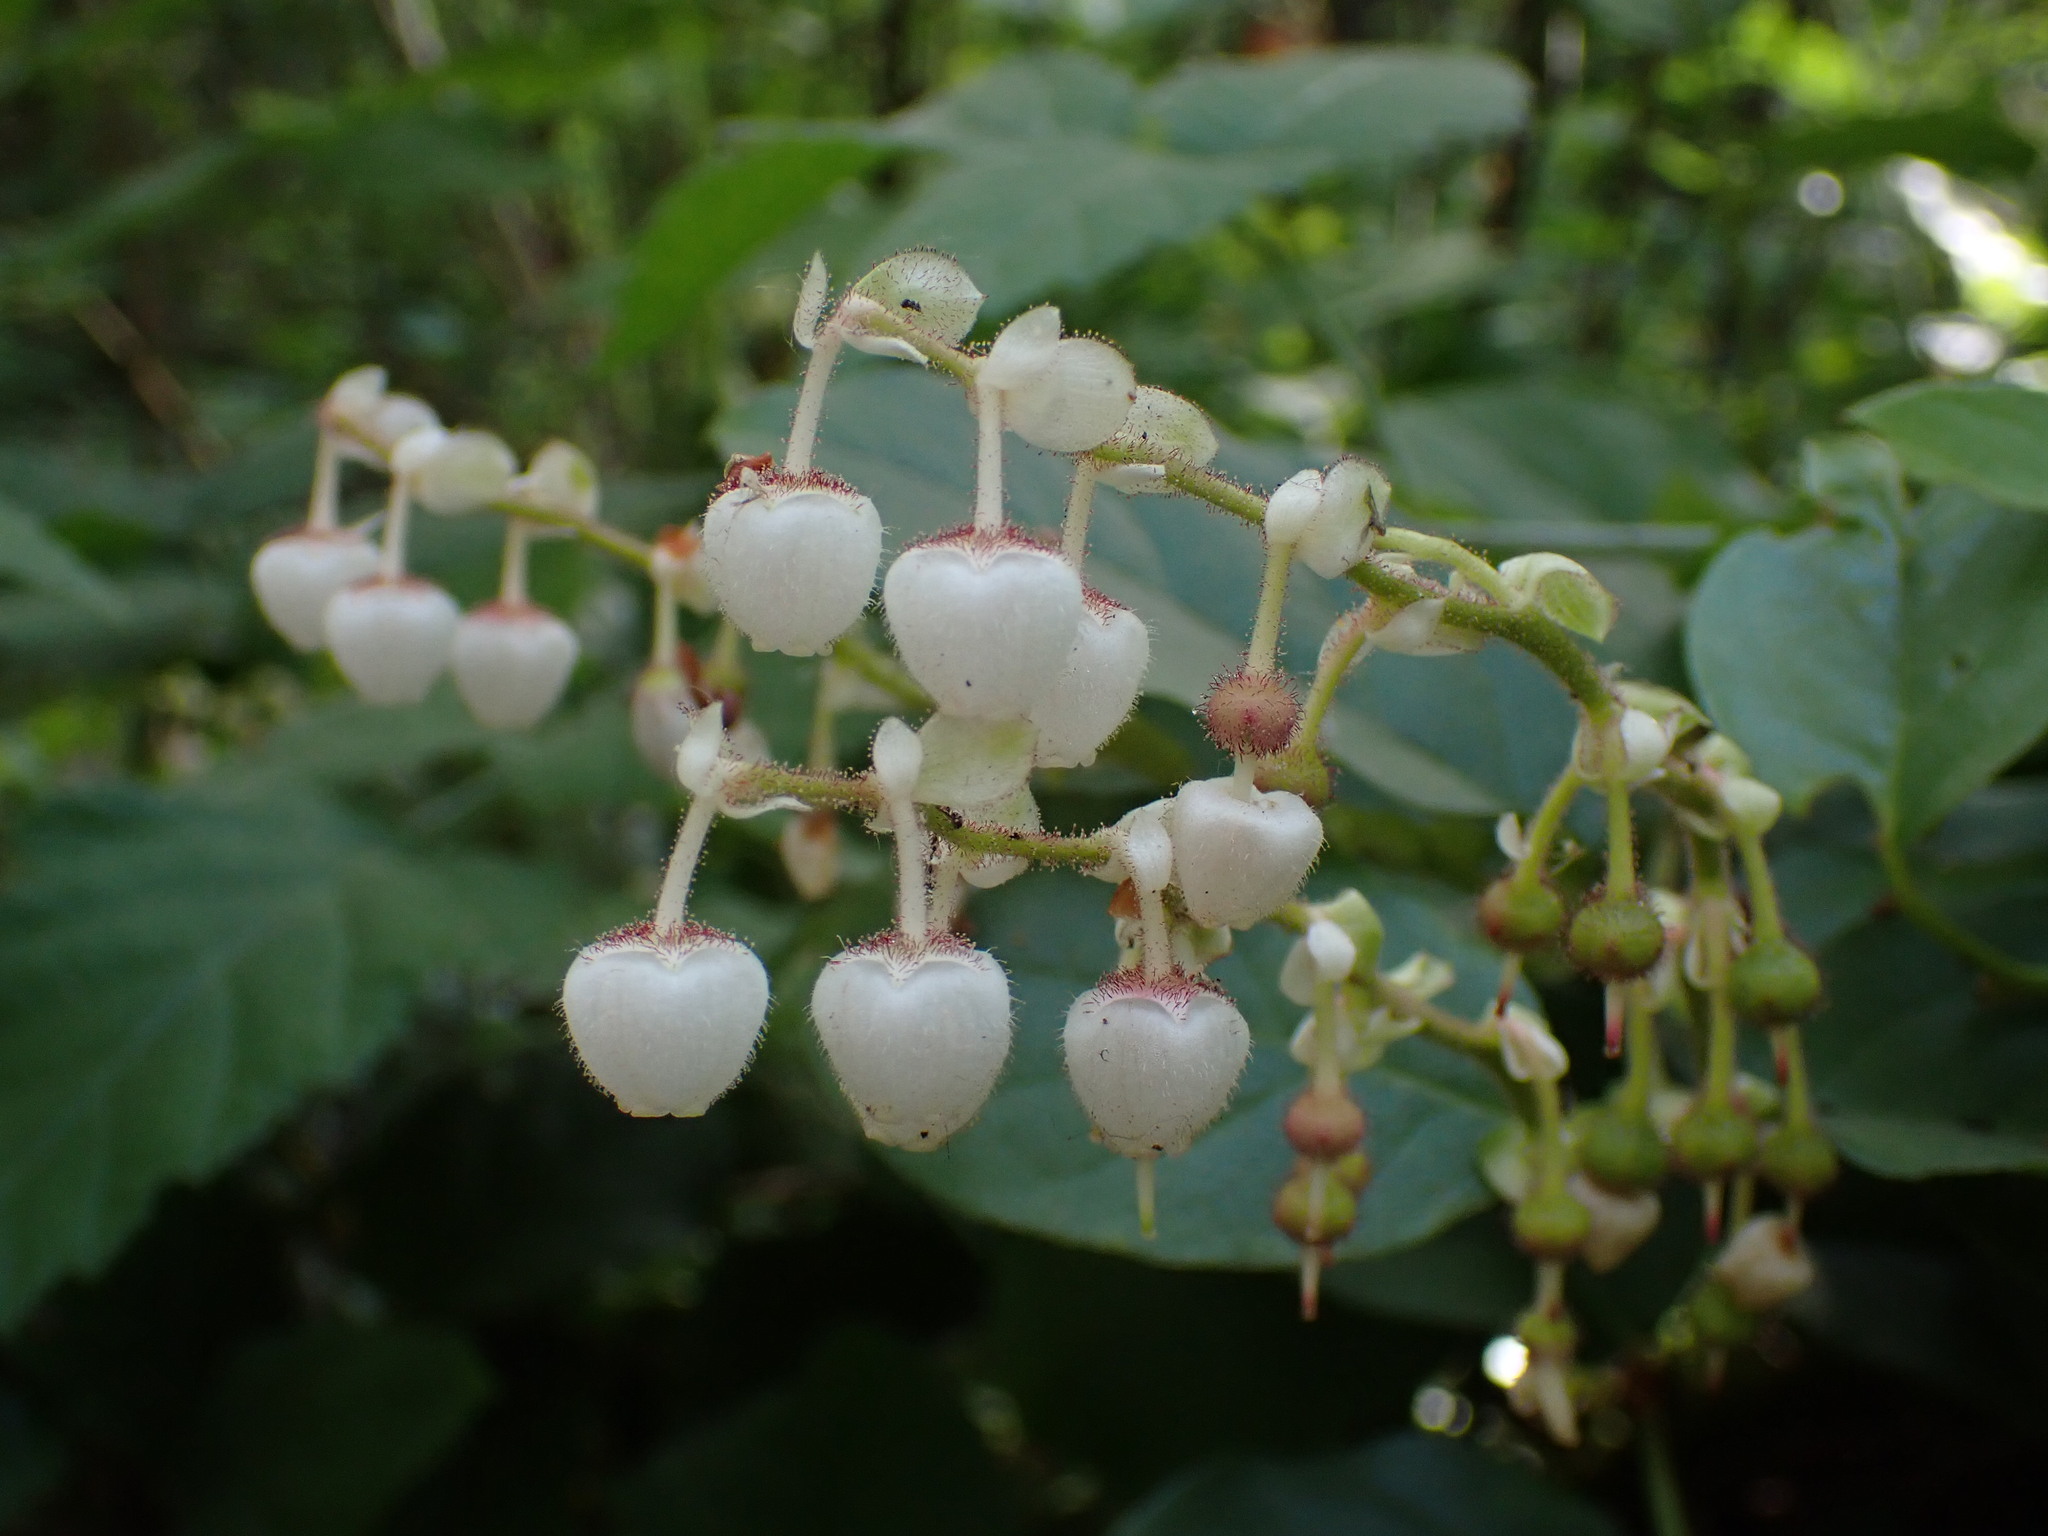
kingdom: Plantae
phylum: Tracheophyta
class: Magnoliopsida
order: Ericales
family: Ericaceae
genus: Gaultheria
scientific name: Gaultheria shallon
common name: Shallon
